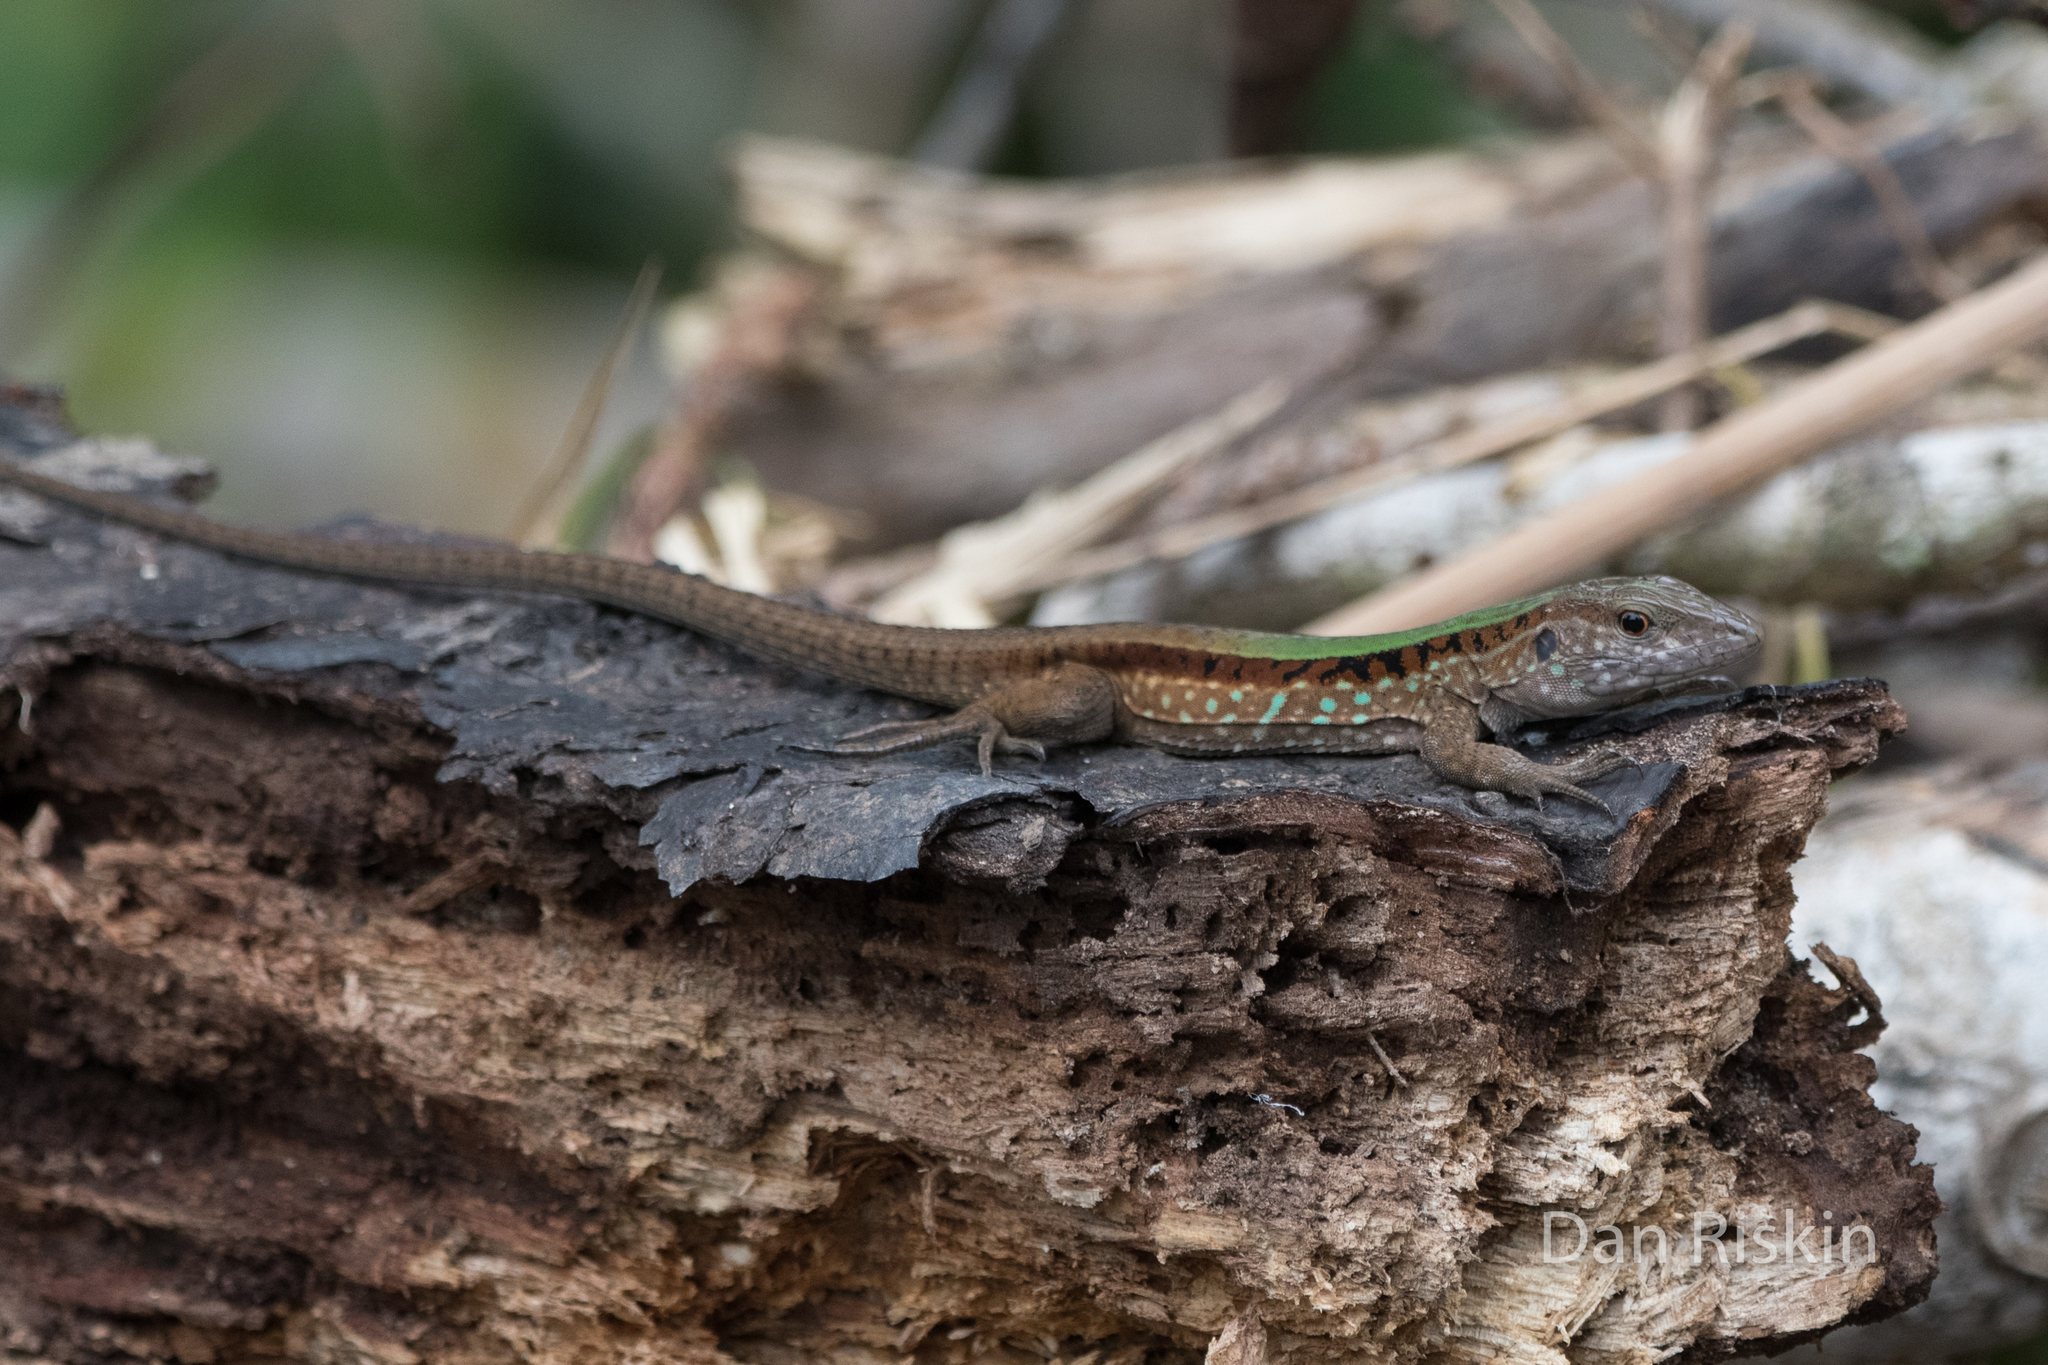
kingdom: Animalia
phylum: Chordata
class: Squamata
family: Teiidae
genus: Kentropyx
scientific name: Kentropyx altamazonica
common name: Cocha whiptail
